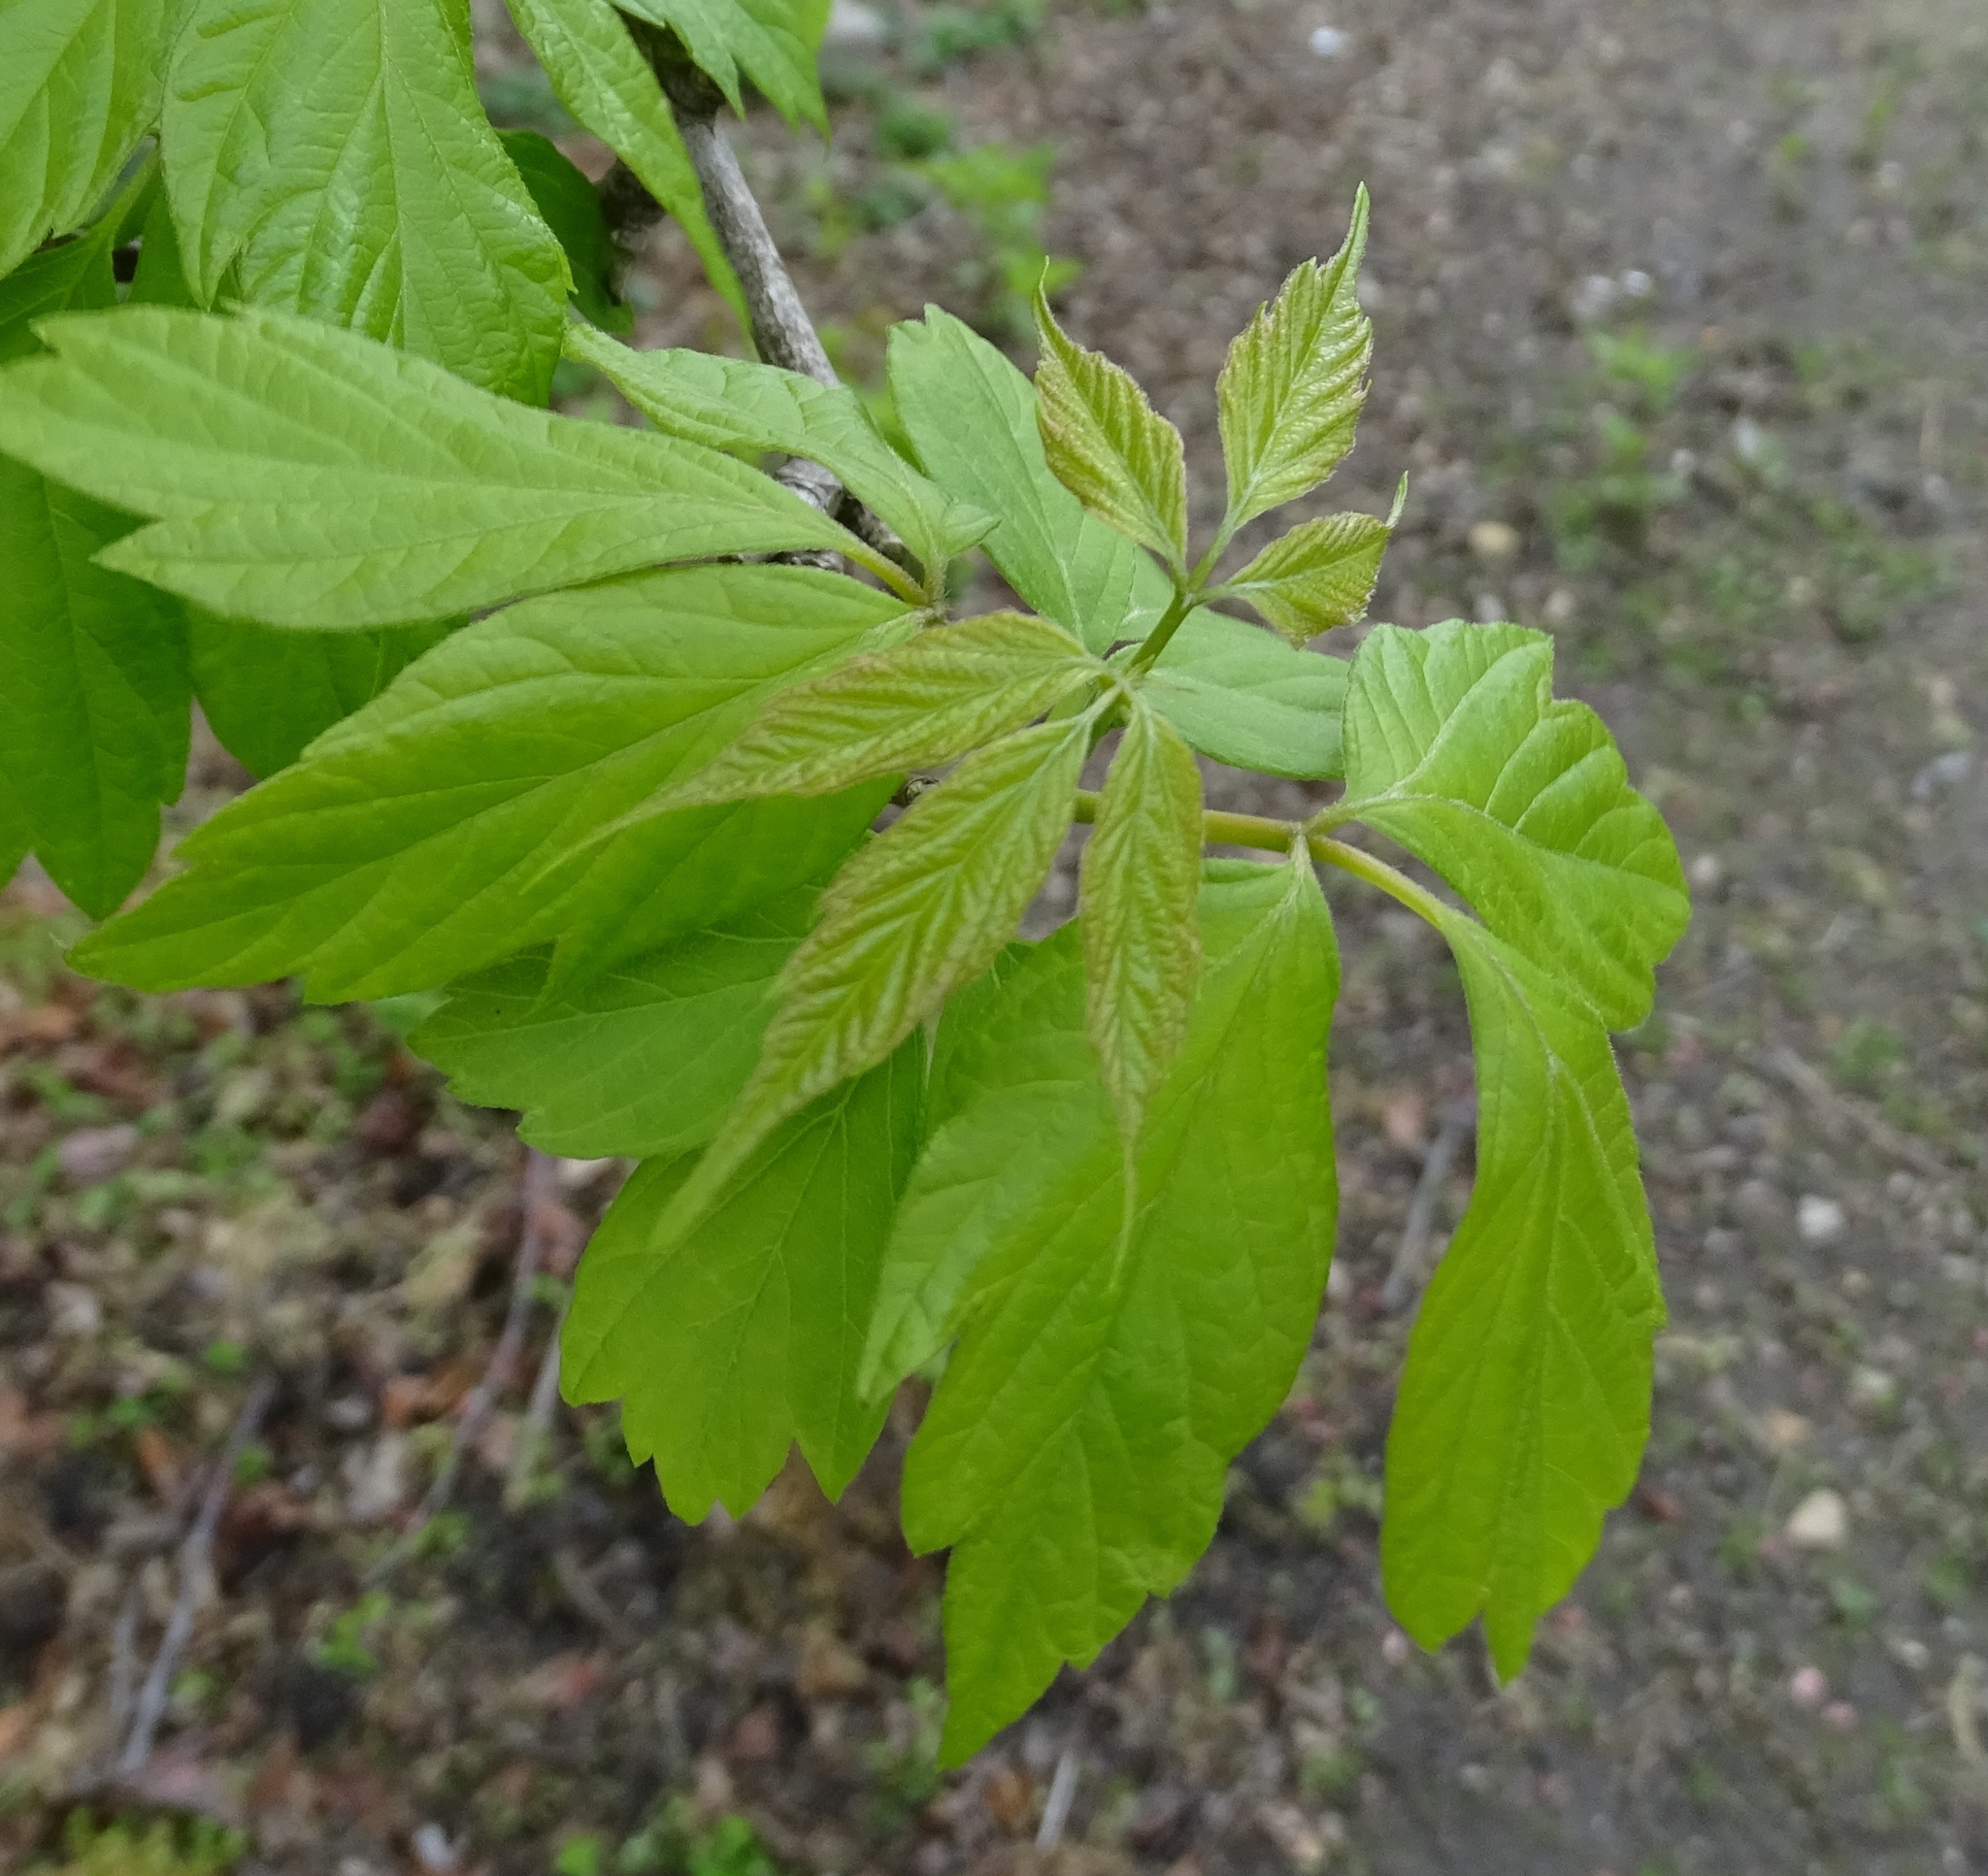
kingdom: Plantae
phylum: Tracheophyta
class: Magnoliopsida
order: Sapindales
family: Sapindaceae
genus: Acer
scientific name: Acer negundo
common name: Ashleaf maple
